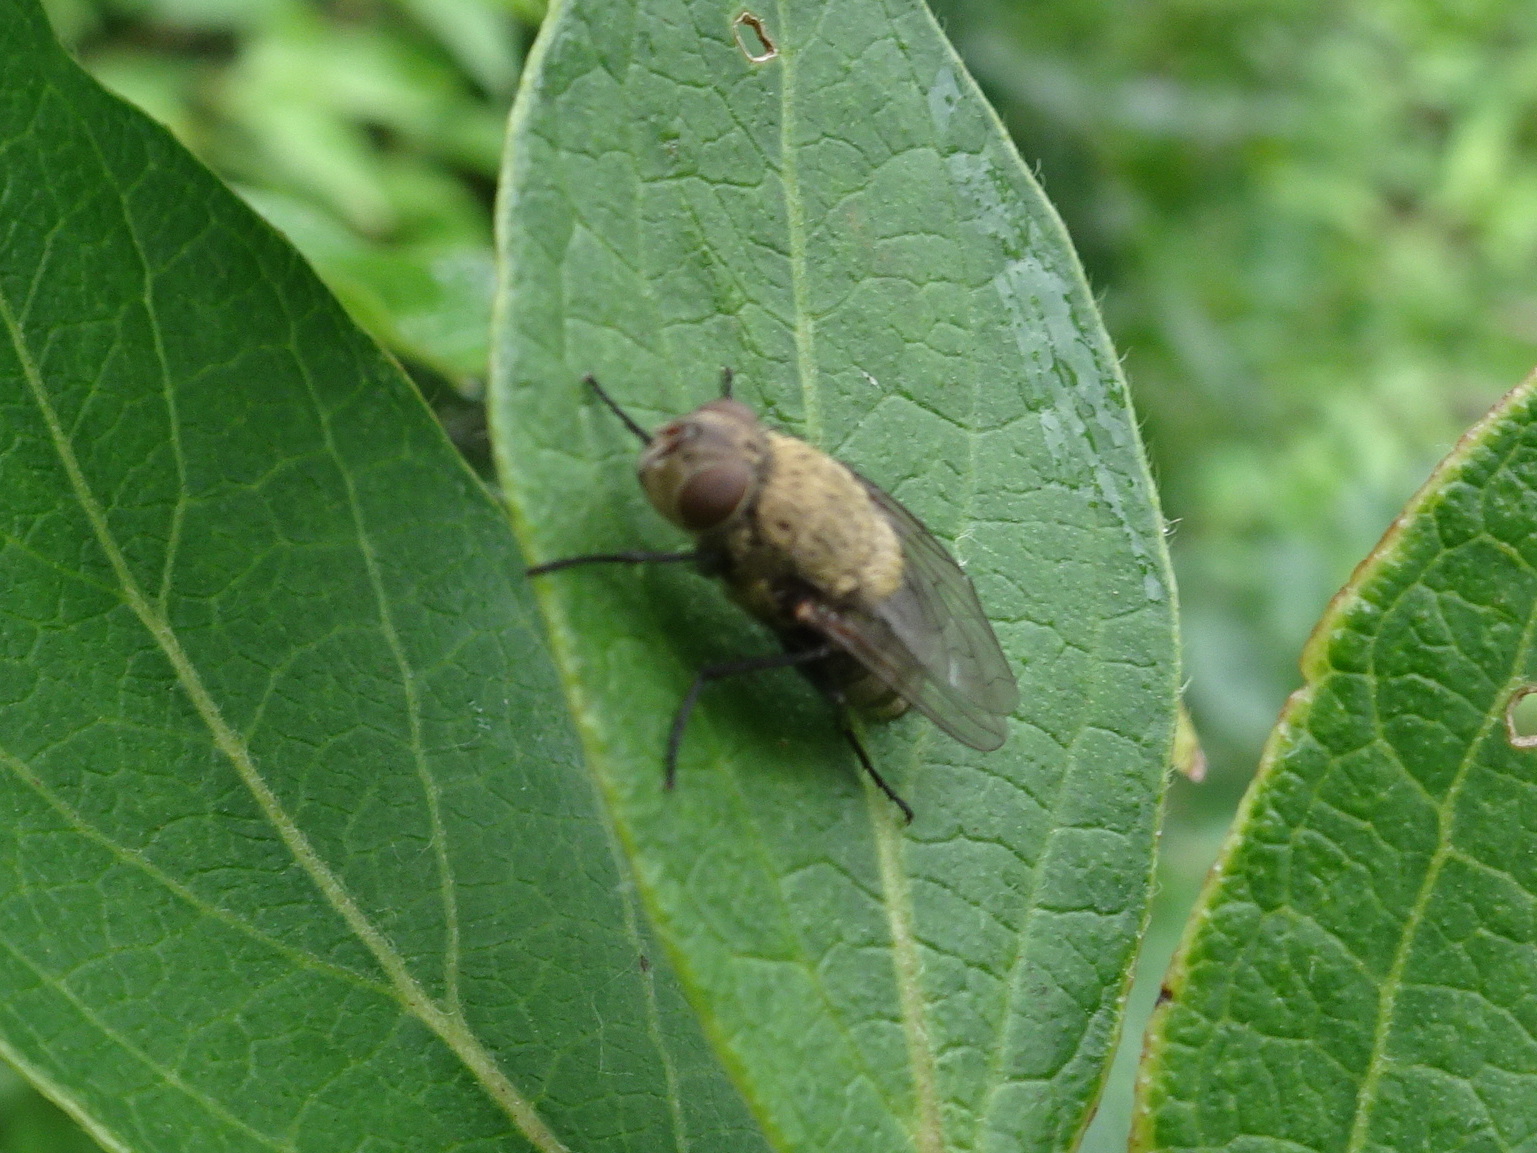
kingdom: Animalia
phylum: Arthropoda
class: Insecta
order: Diptera
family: Polleniidae
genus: Pollenia
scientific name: Pollenia
